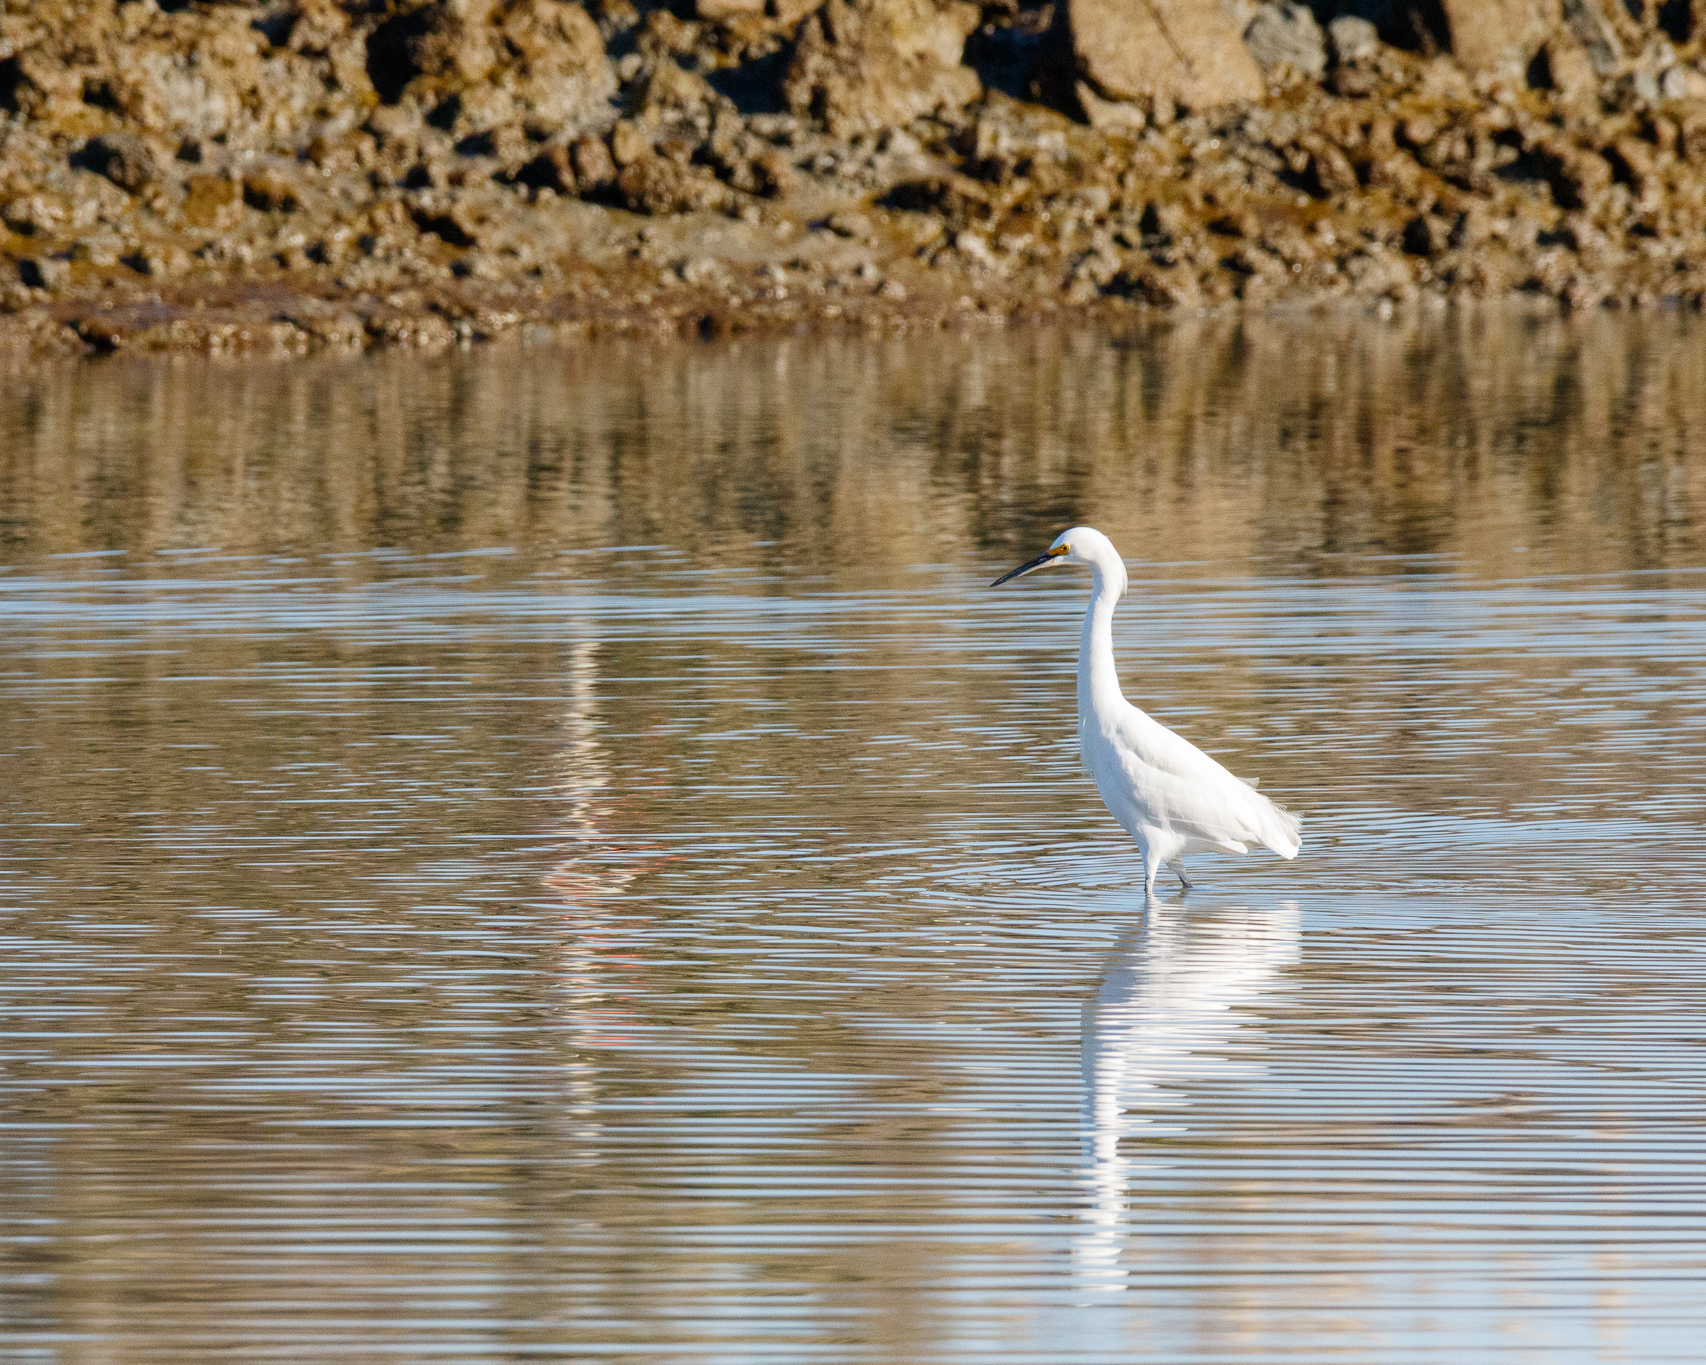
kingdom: Animalia
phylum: Chordata
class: Aves
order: Pelecaniformes
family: Ardeidae
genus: Egretta
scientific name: Egretta thula
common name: Snowy egret
